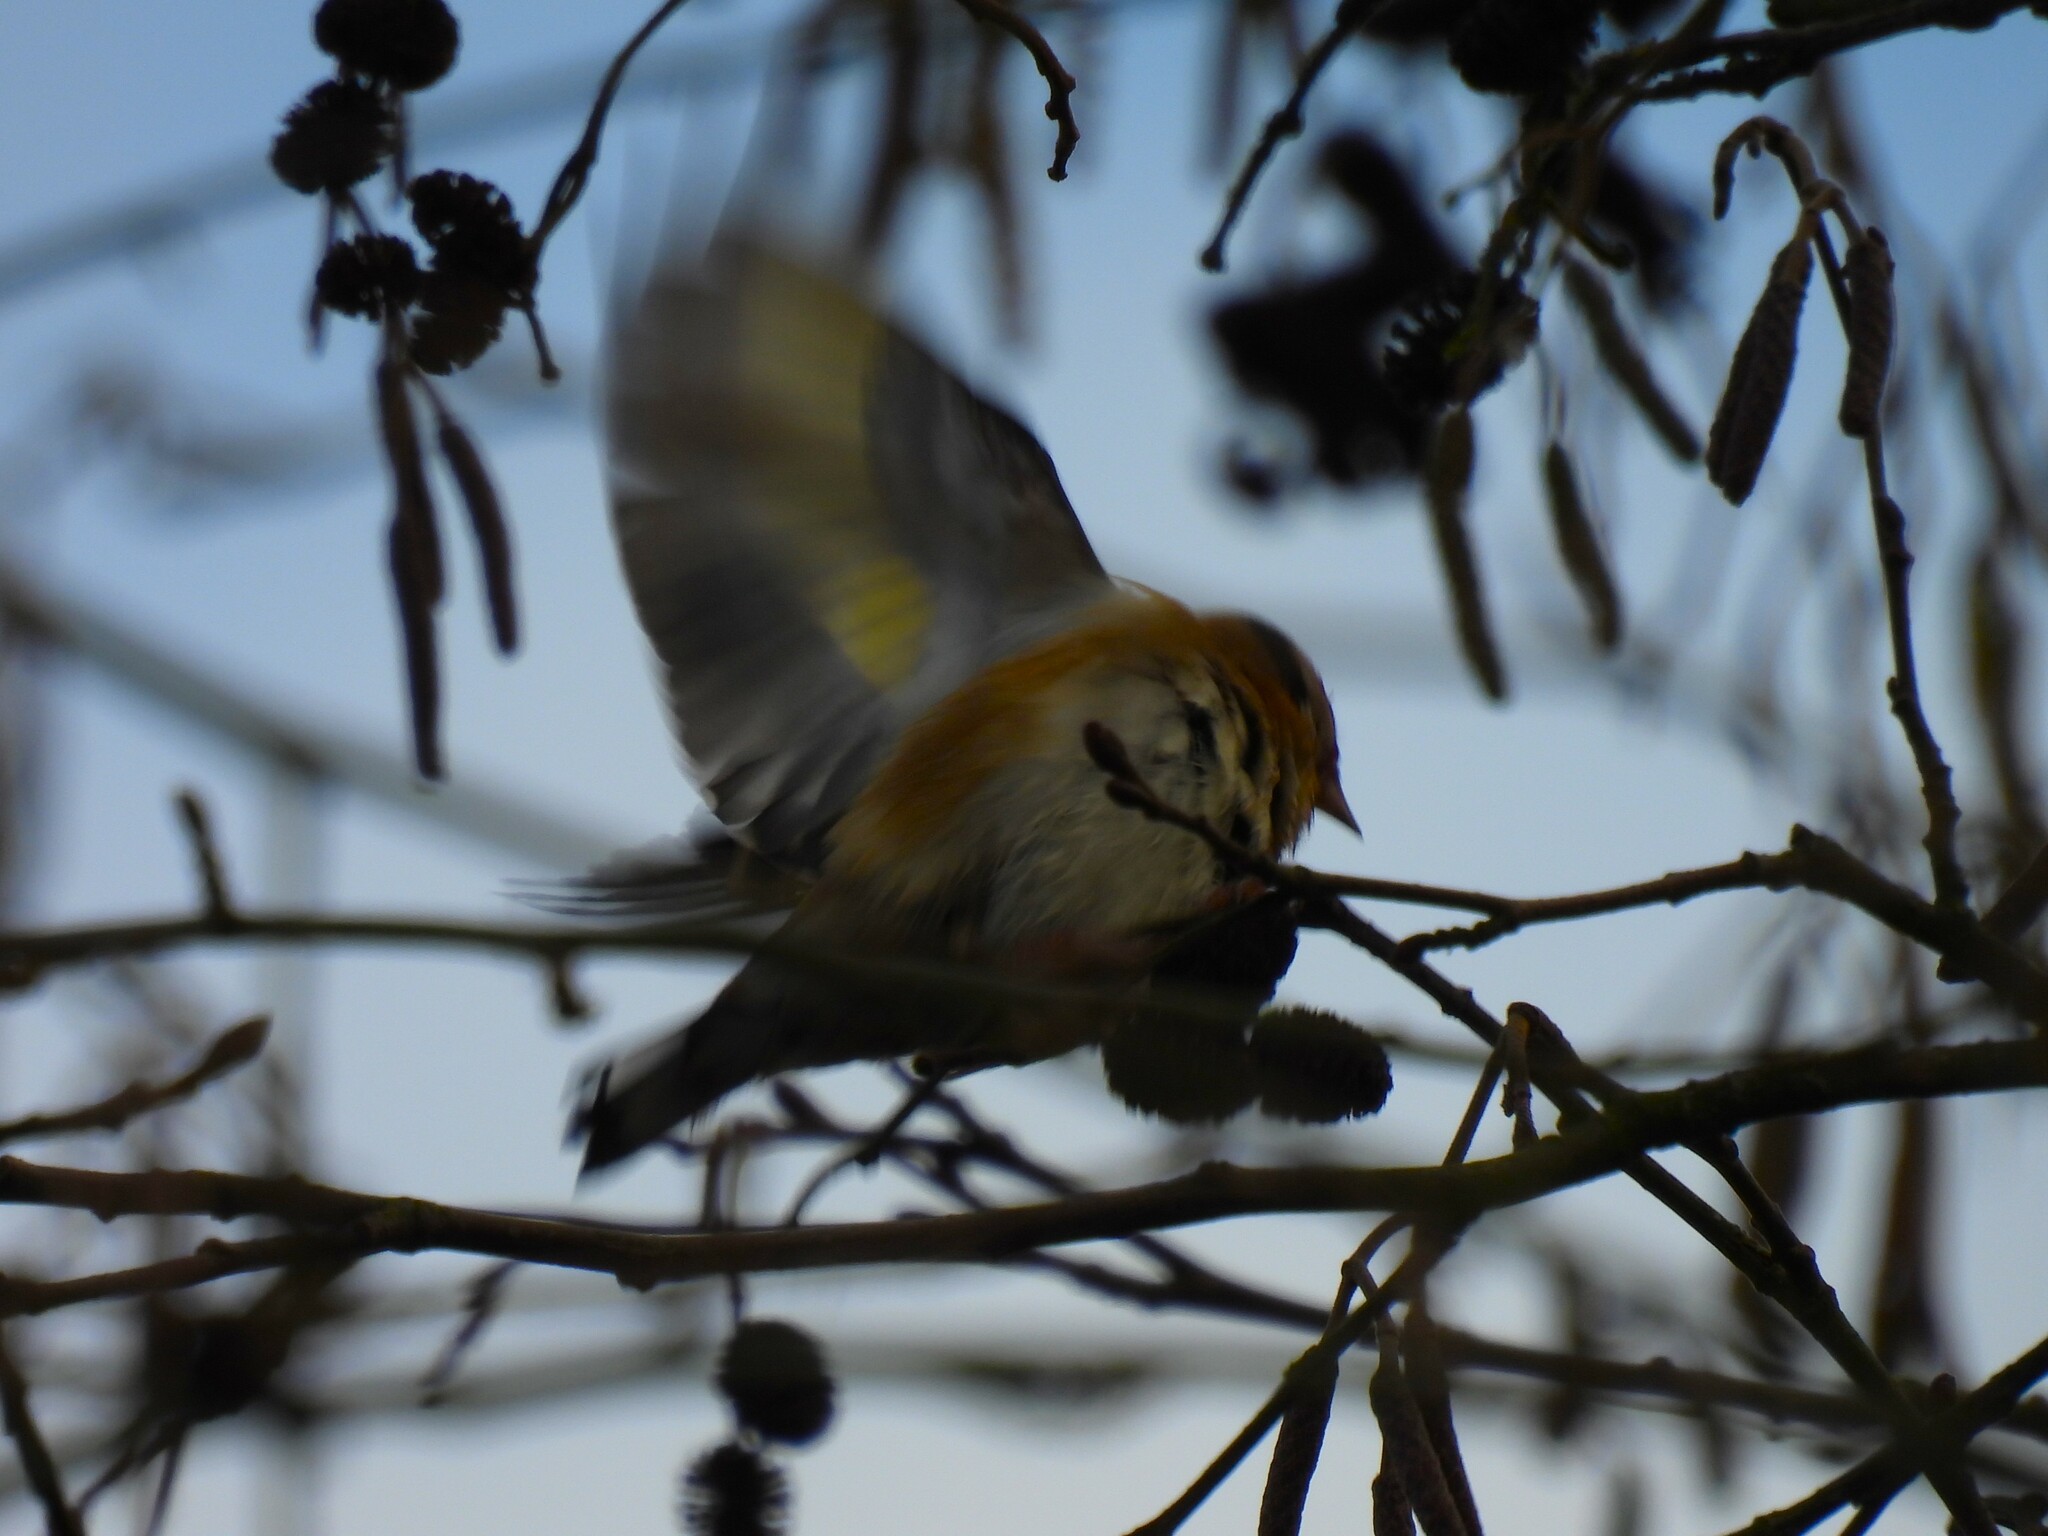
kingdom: Animalia
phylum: Chordata
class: Aves
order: Passeriformes
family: Fringillidae
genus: Carduelis
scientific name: Carduelis carduelis
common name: European goldfinch
